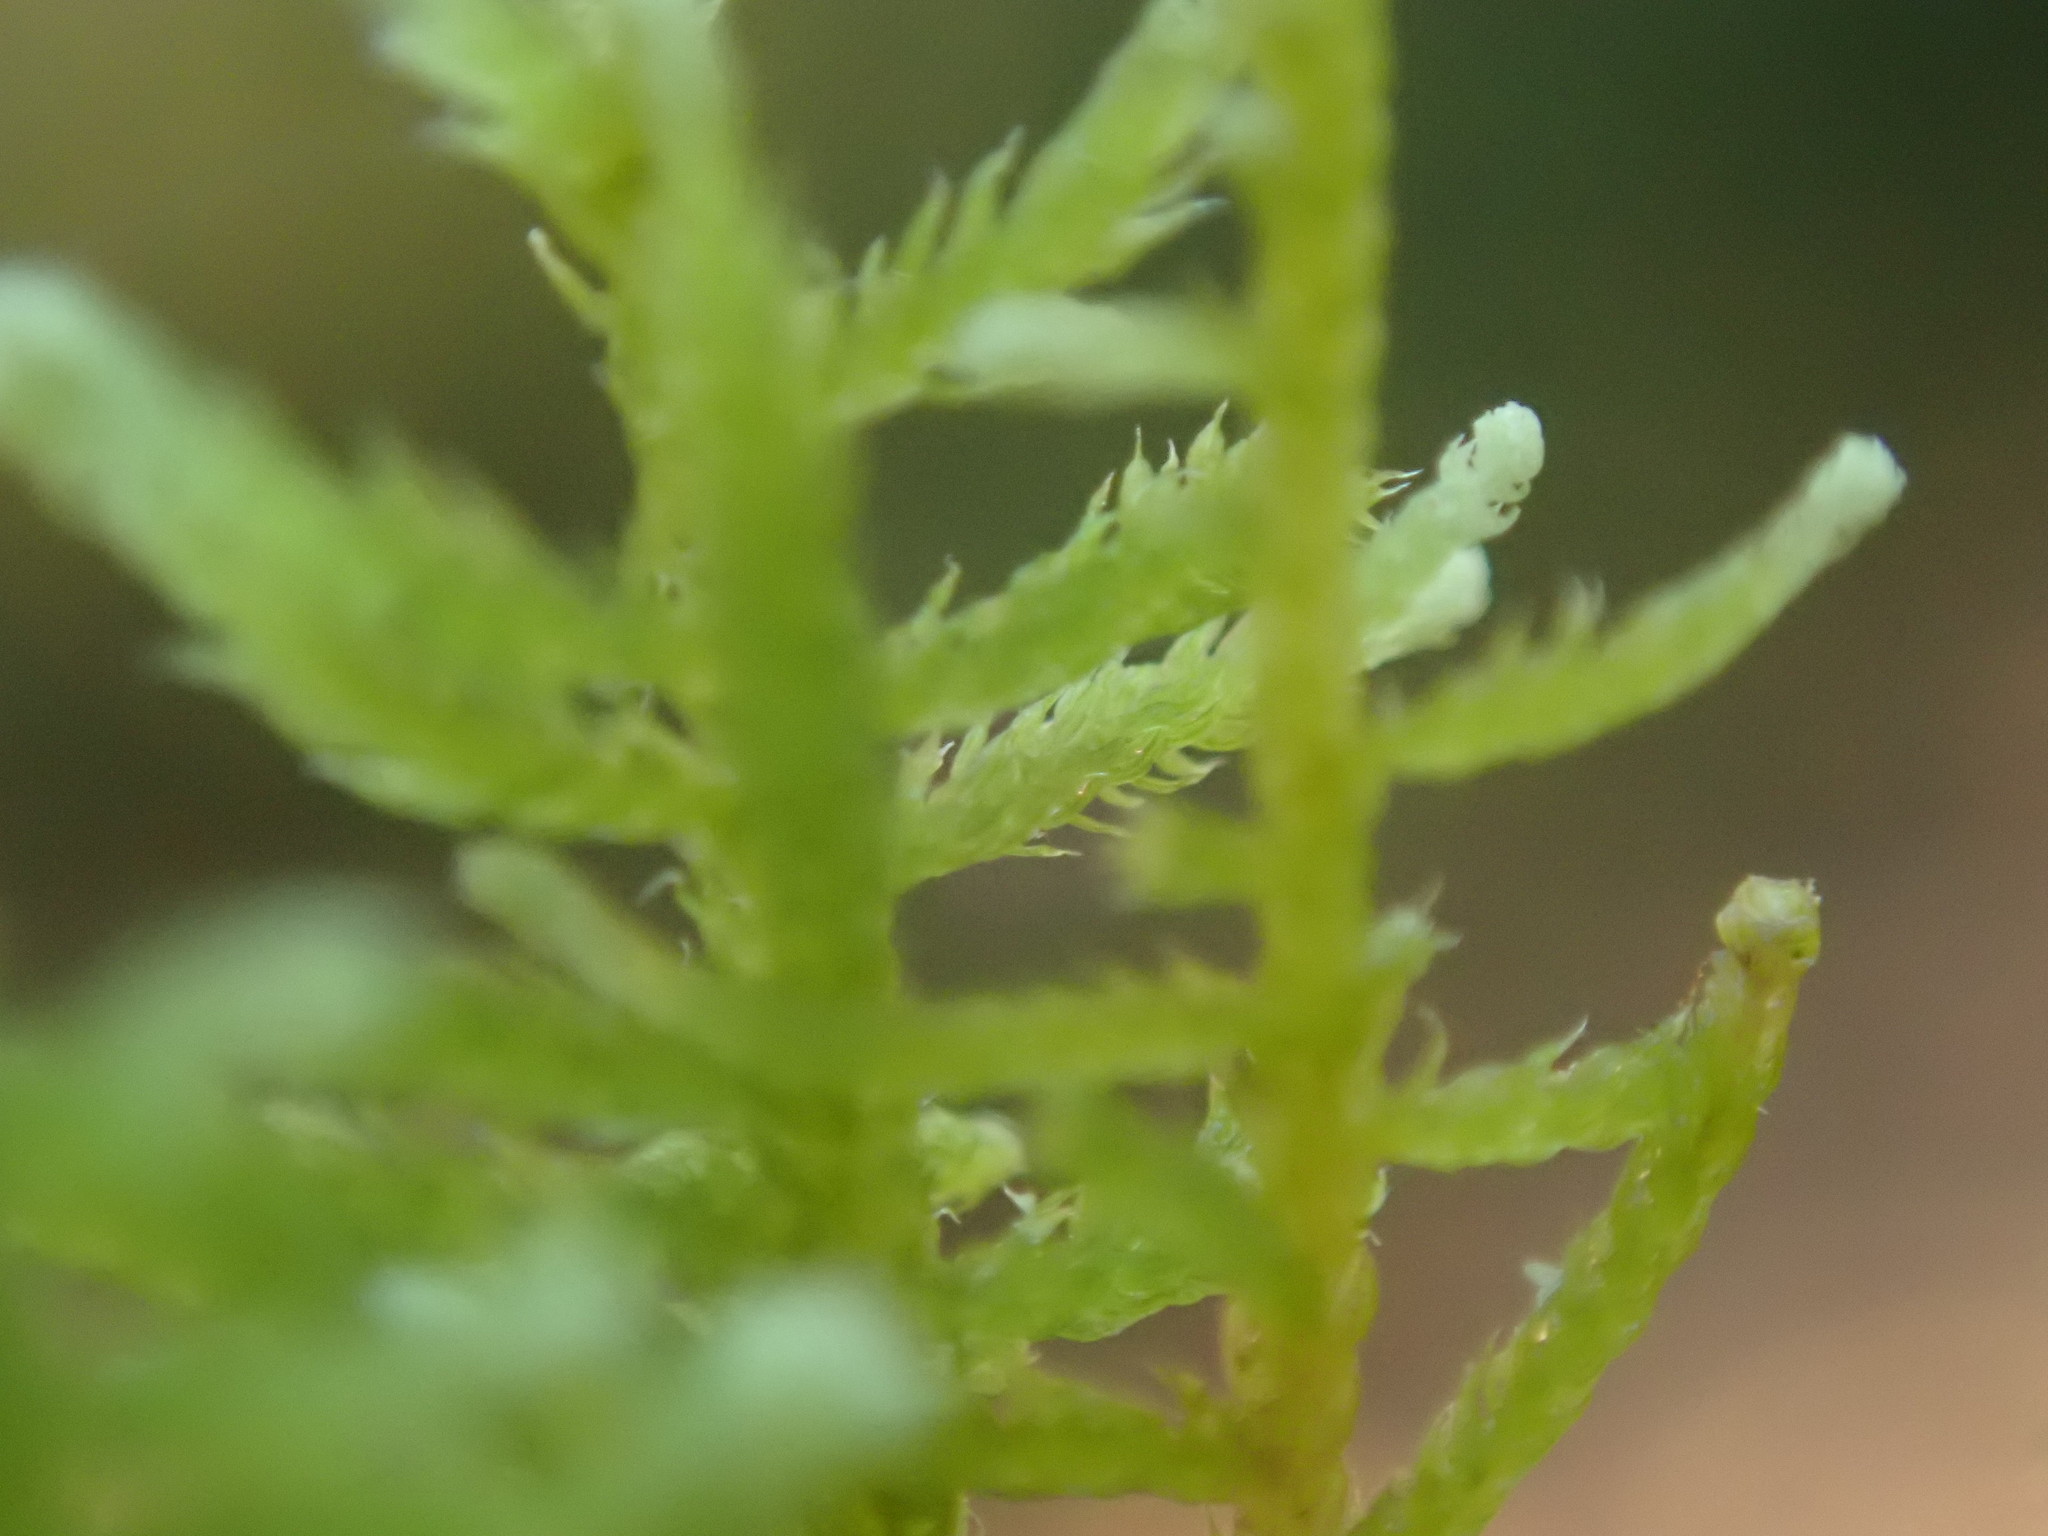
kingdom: Plantae
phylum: Bryophyta
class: Bryopsida
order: Hypnales
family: Brachytheciaceae
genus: Claopodium
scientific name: Claopodium crispifolium
